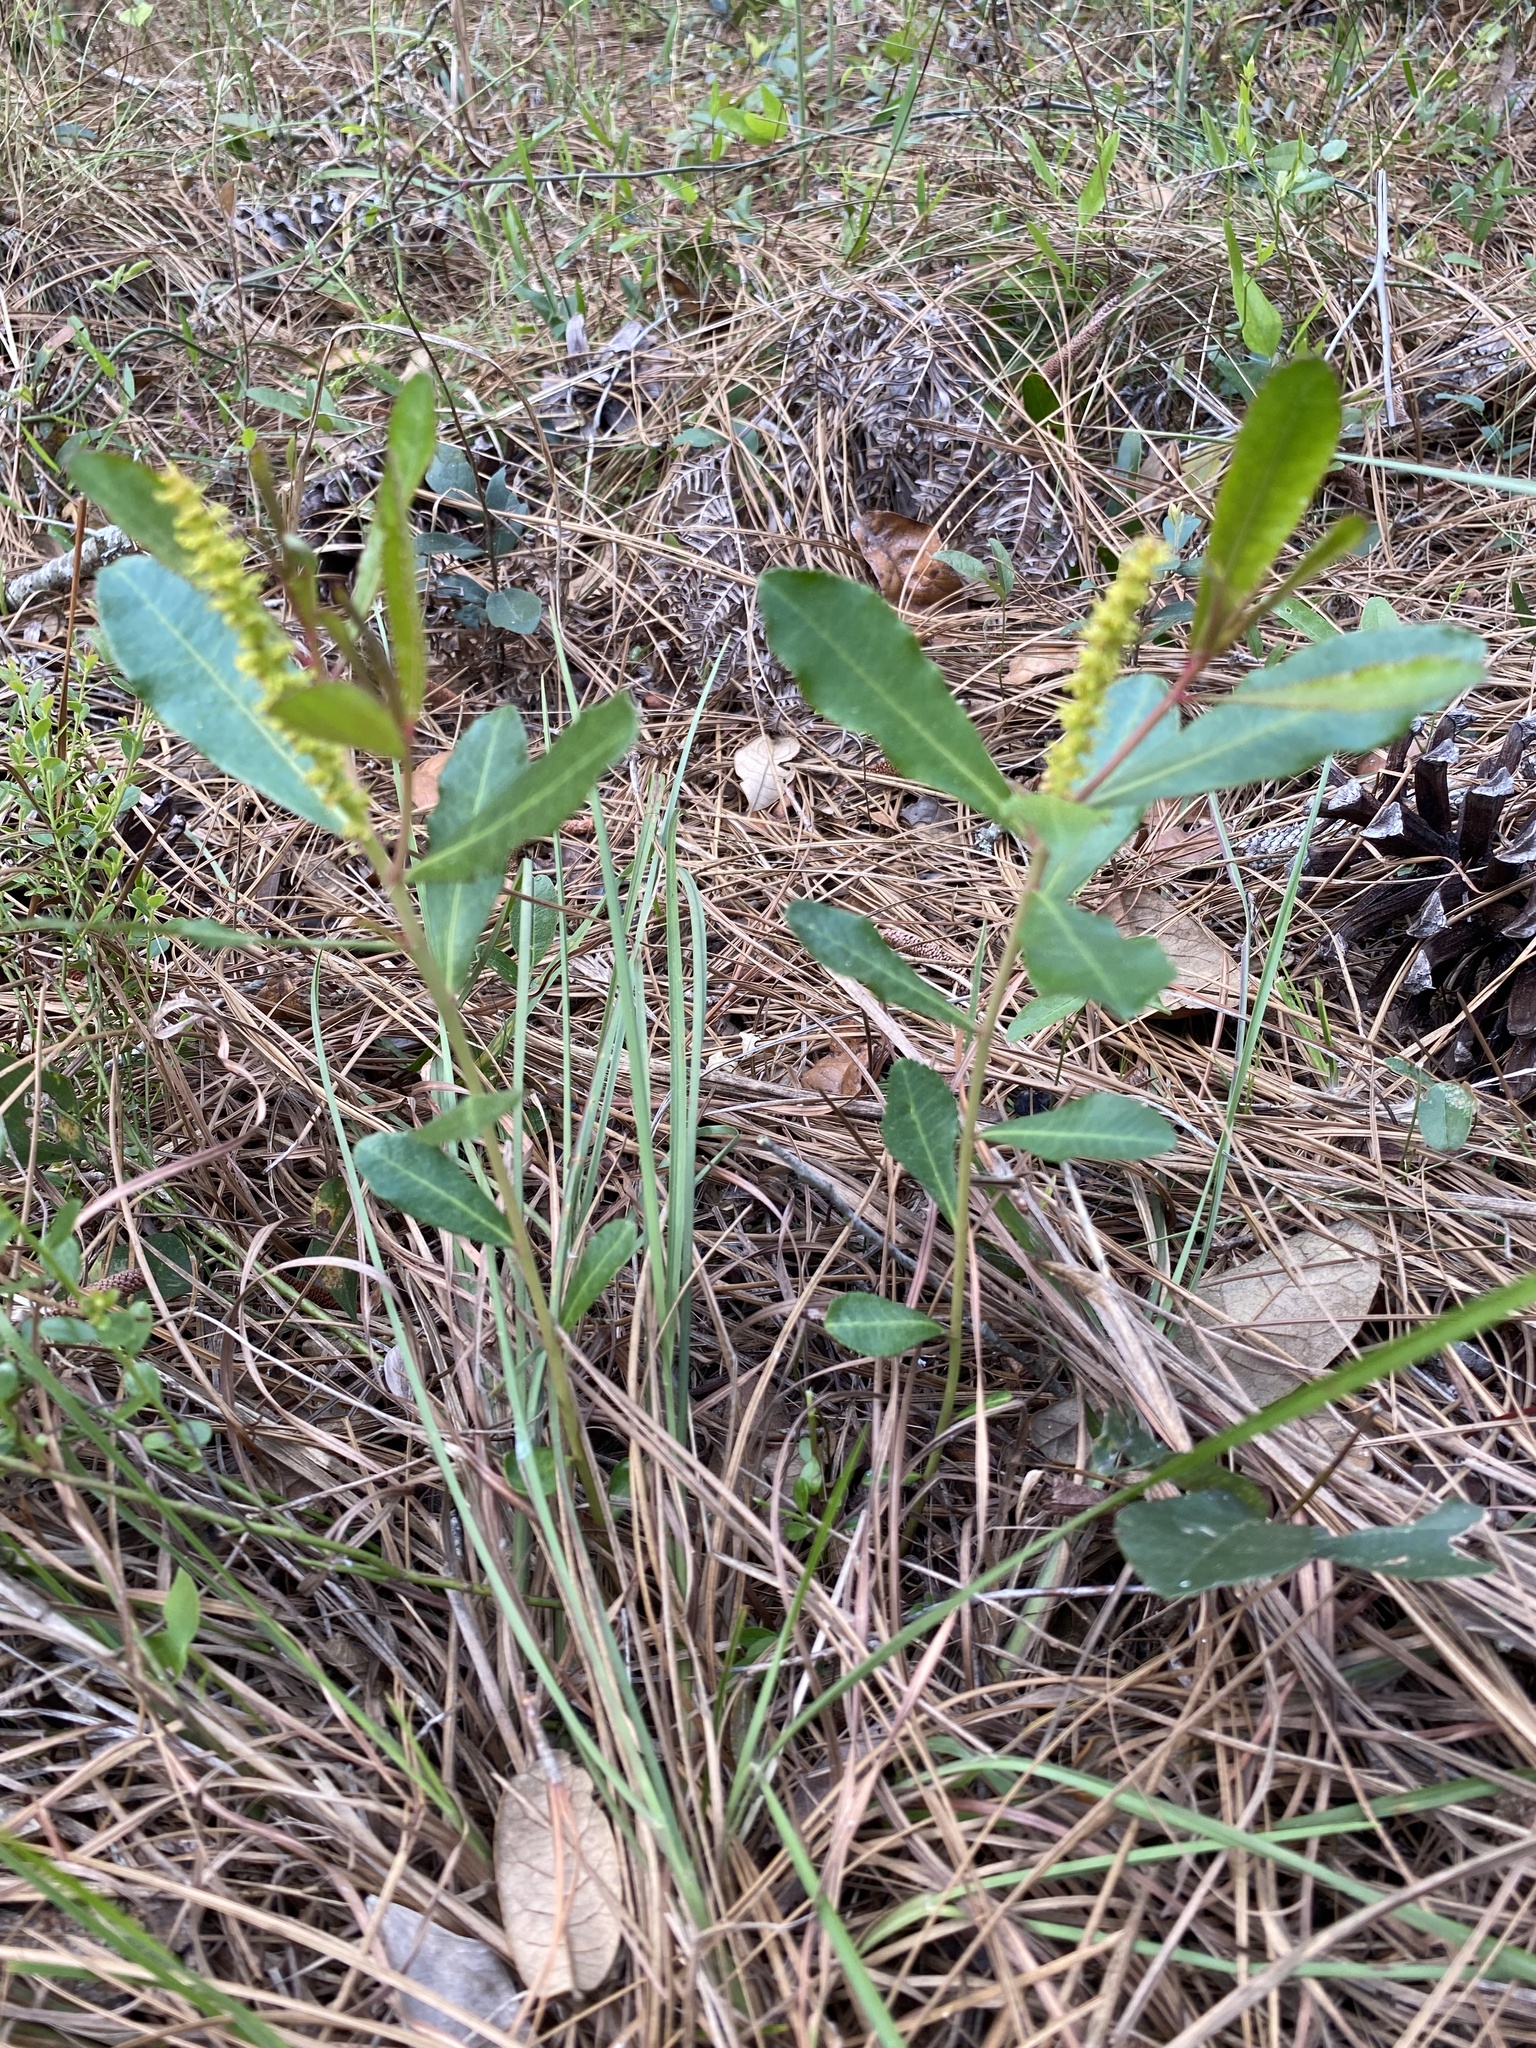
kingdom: Plantae
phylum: Tracheophyta
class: Magnoliopsida
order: Malpighiales
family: Euphorbiaceae
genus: Stillingia
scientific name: Stillingia sylvatica
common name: Queen's-delight
